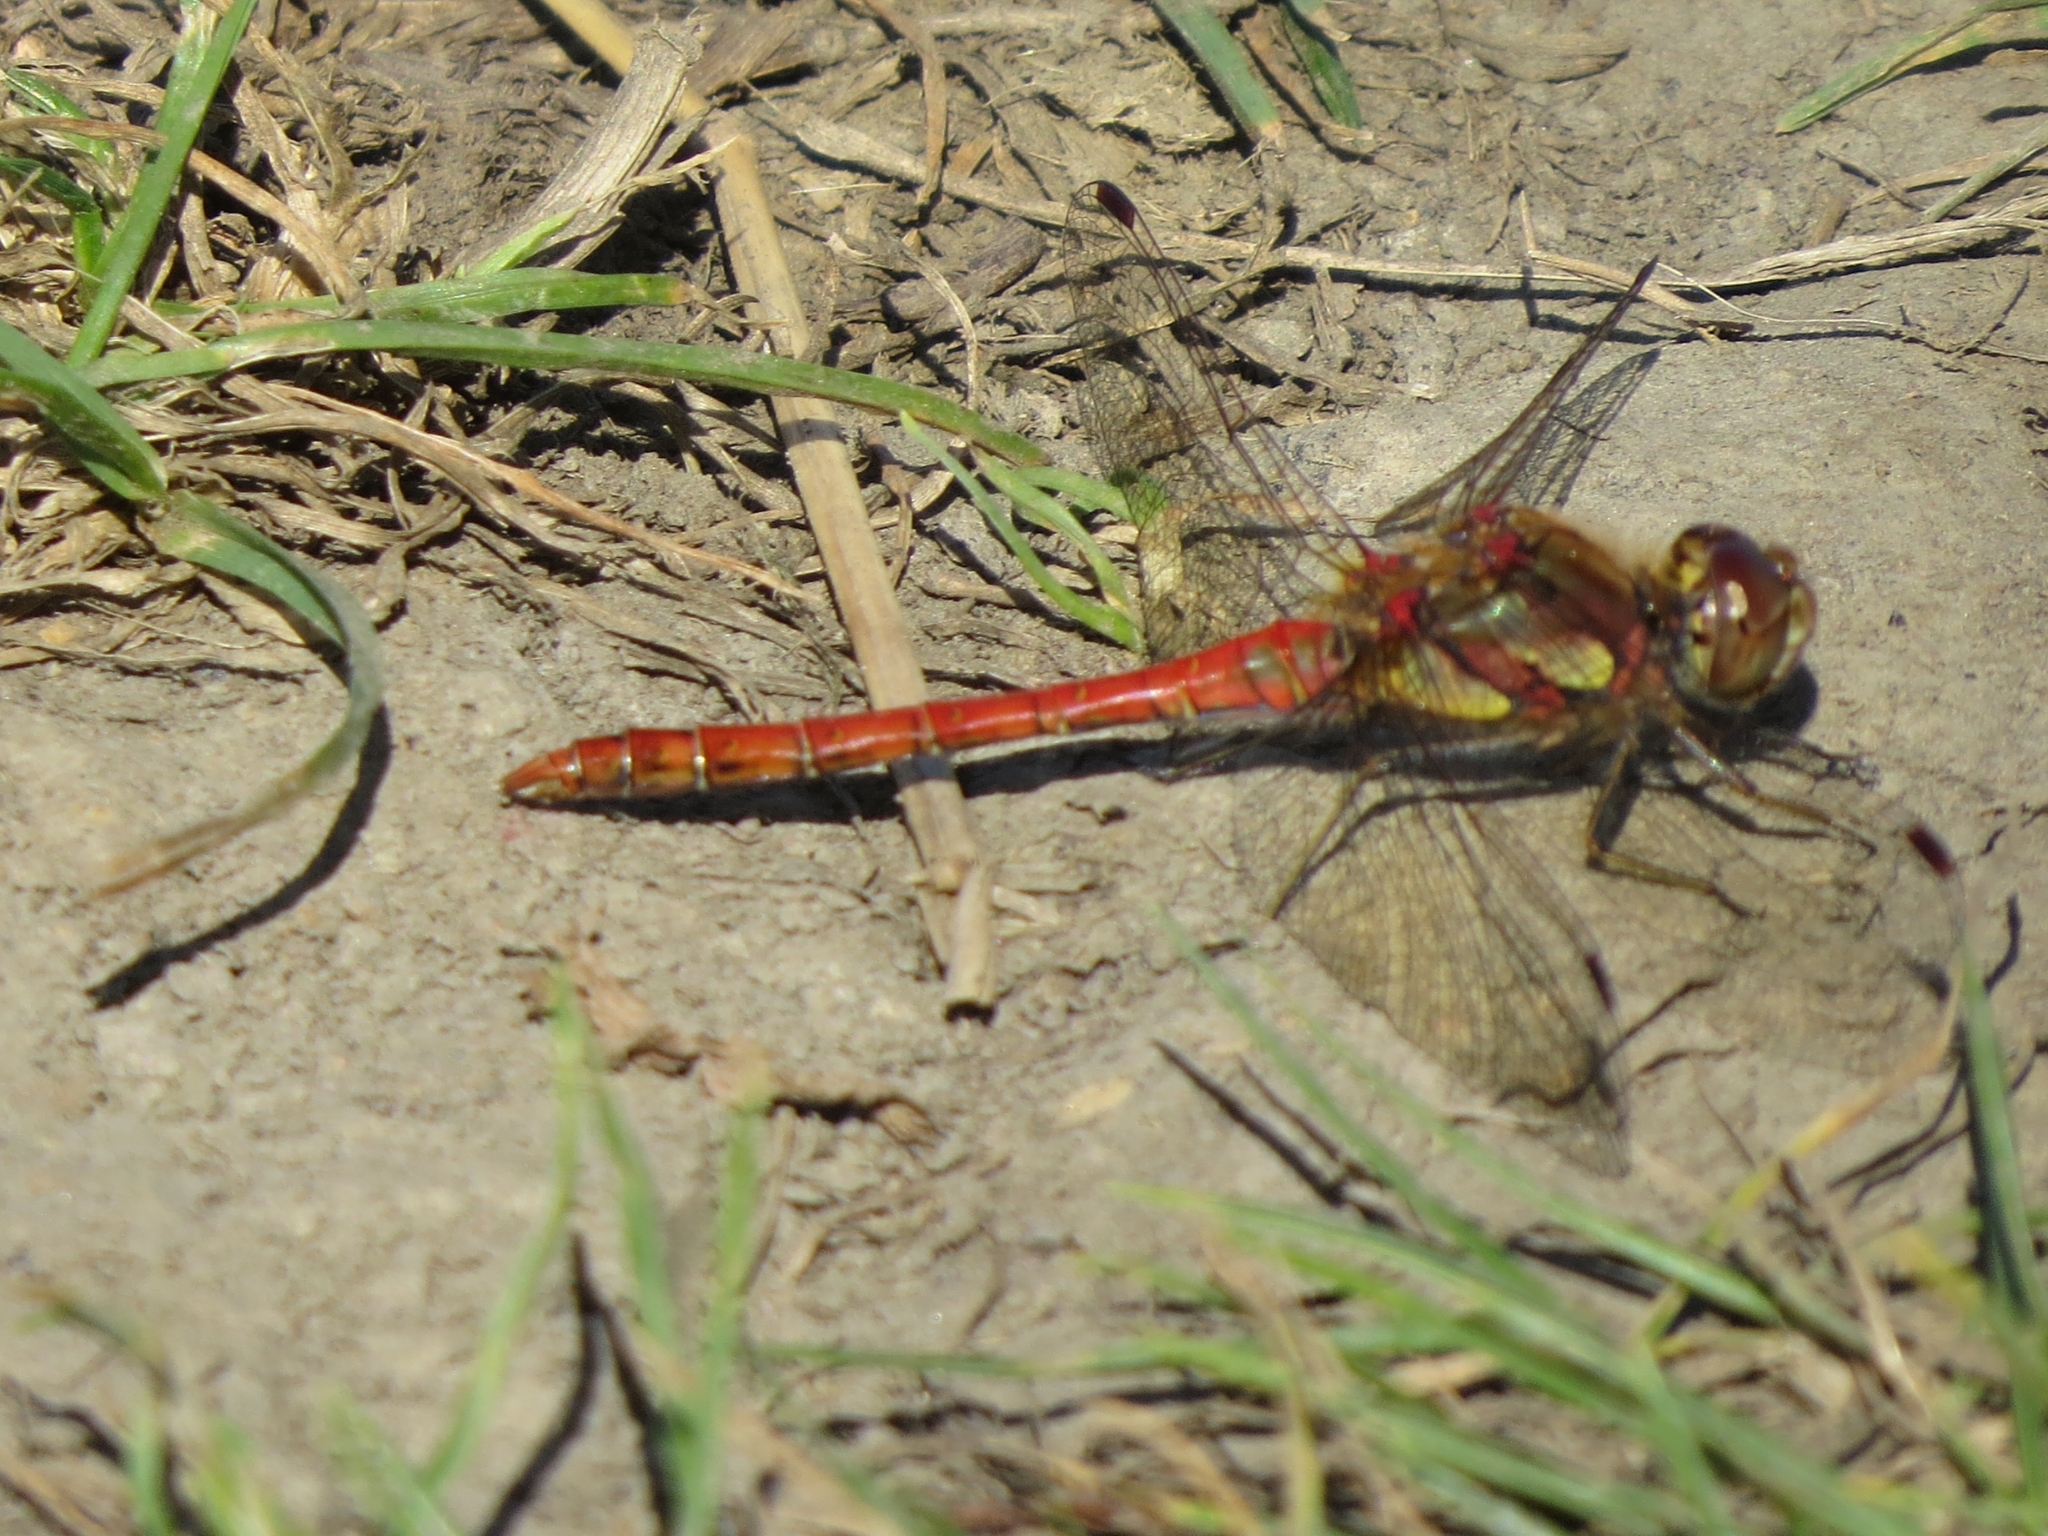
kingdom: Animalia
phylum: Arthropoda
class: Insecta
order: Odonata
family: Libellulidae
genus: Sympetrum
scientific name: Sympetrum striolatum
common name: Common darter
